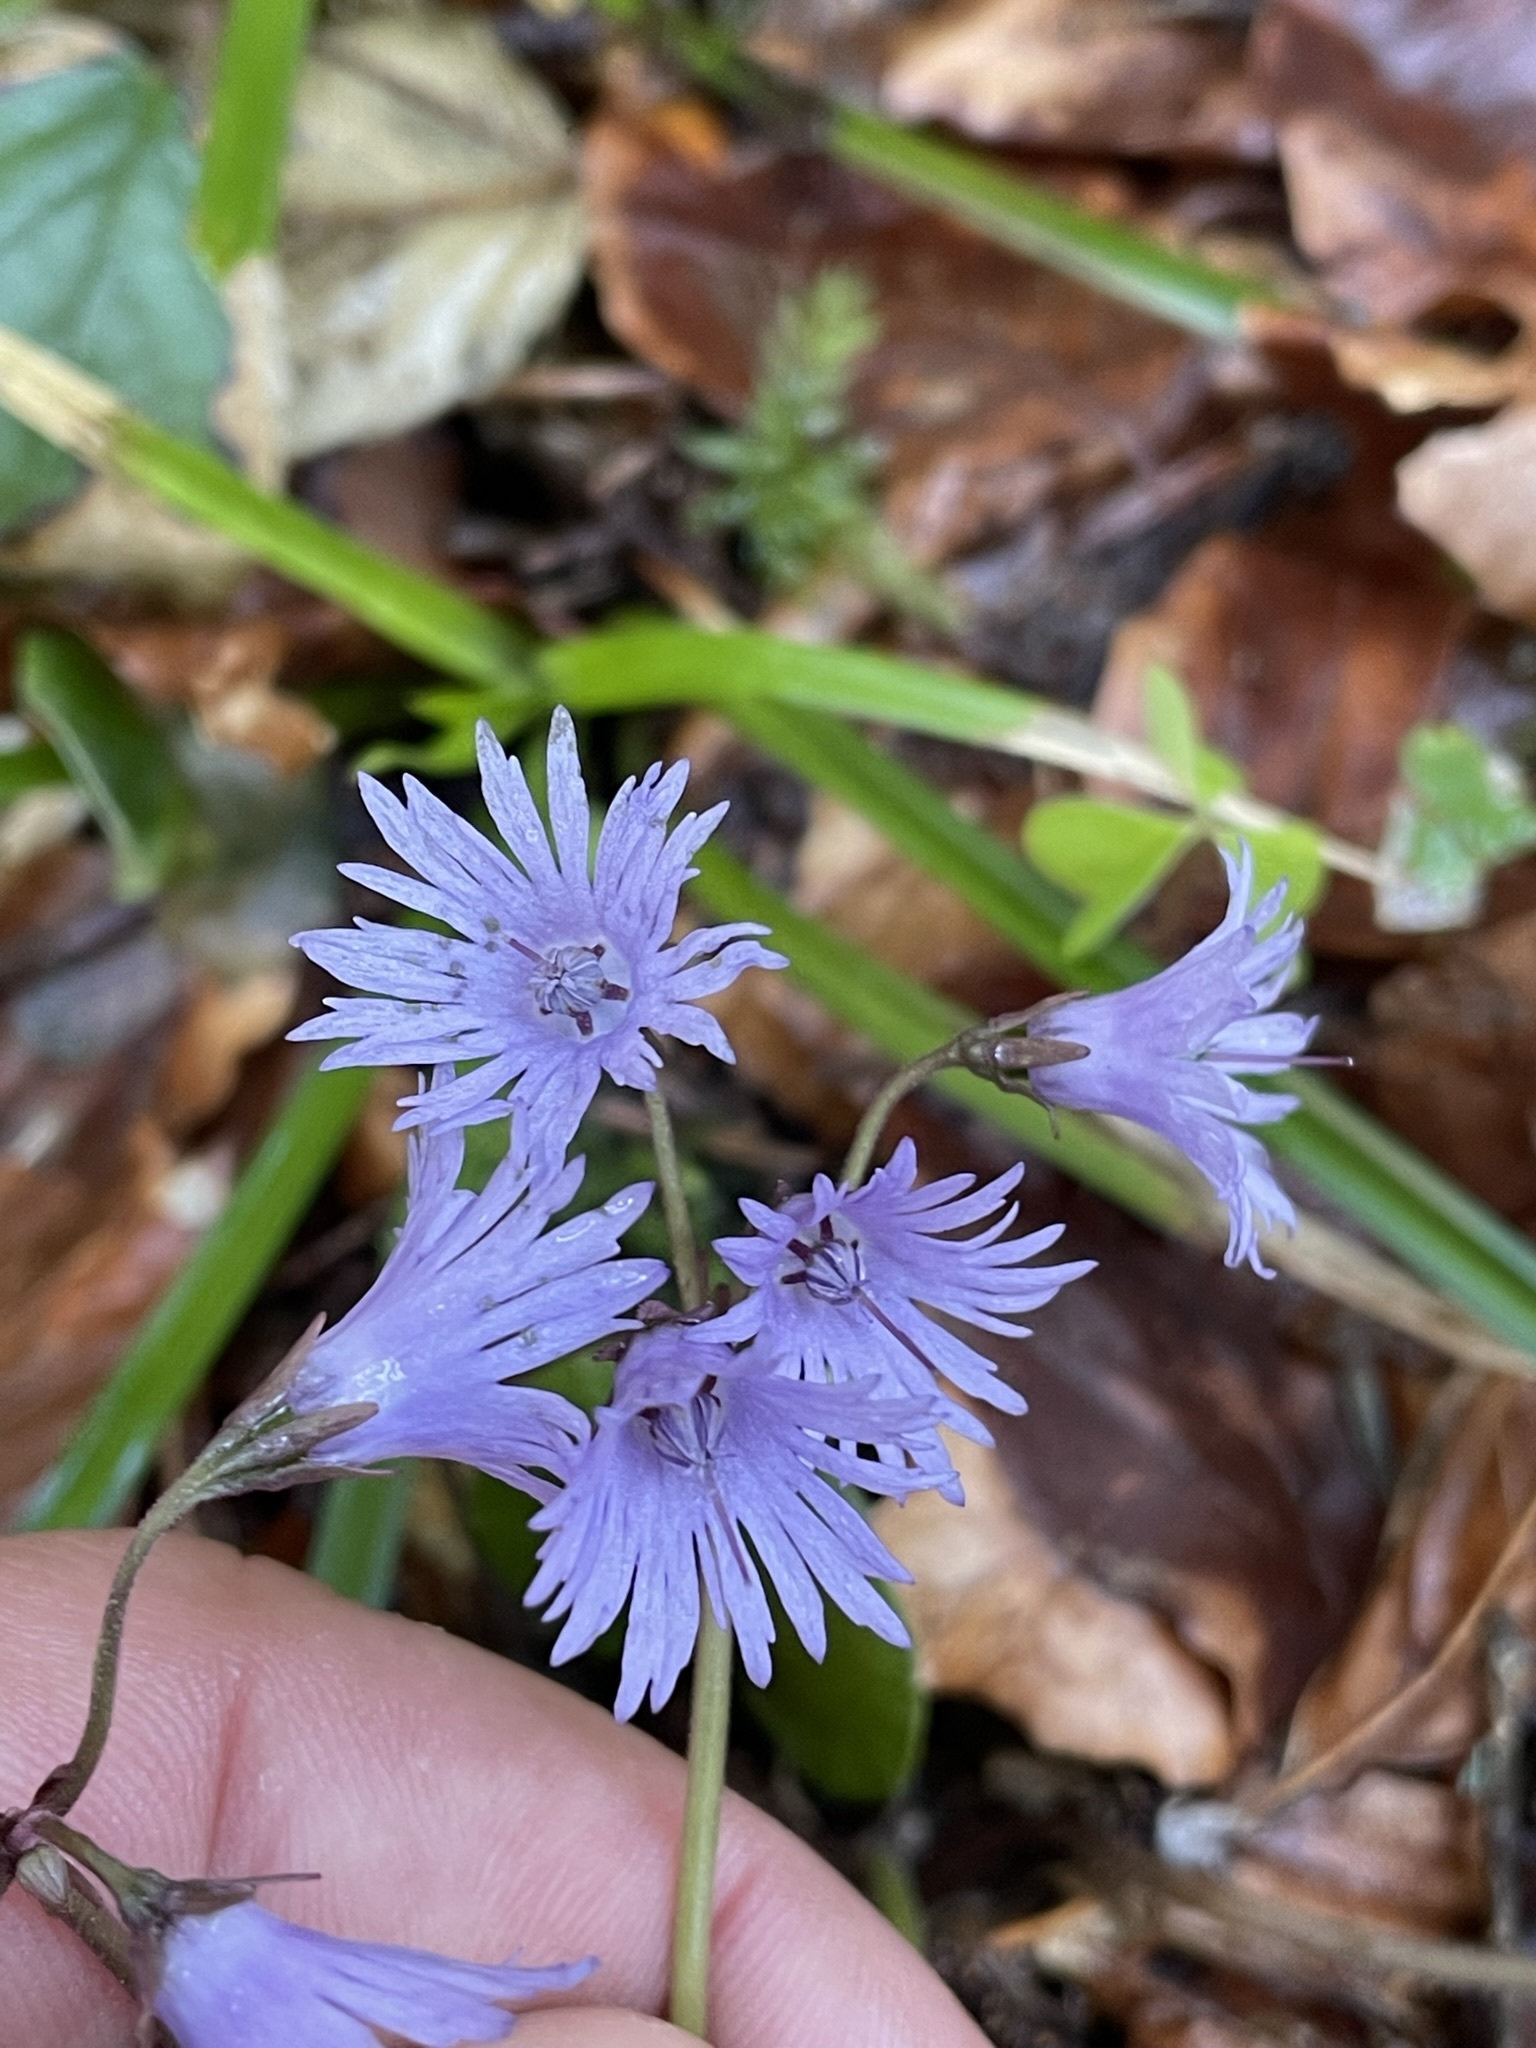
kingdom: Plantae
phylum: Tracheophyta
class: Magnoliopsida
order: Ericales
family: Primulaceae
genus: Soldanella
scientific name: Soldanella montana
